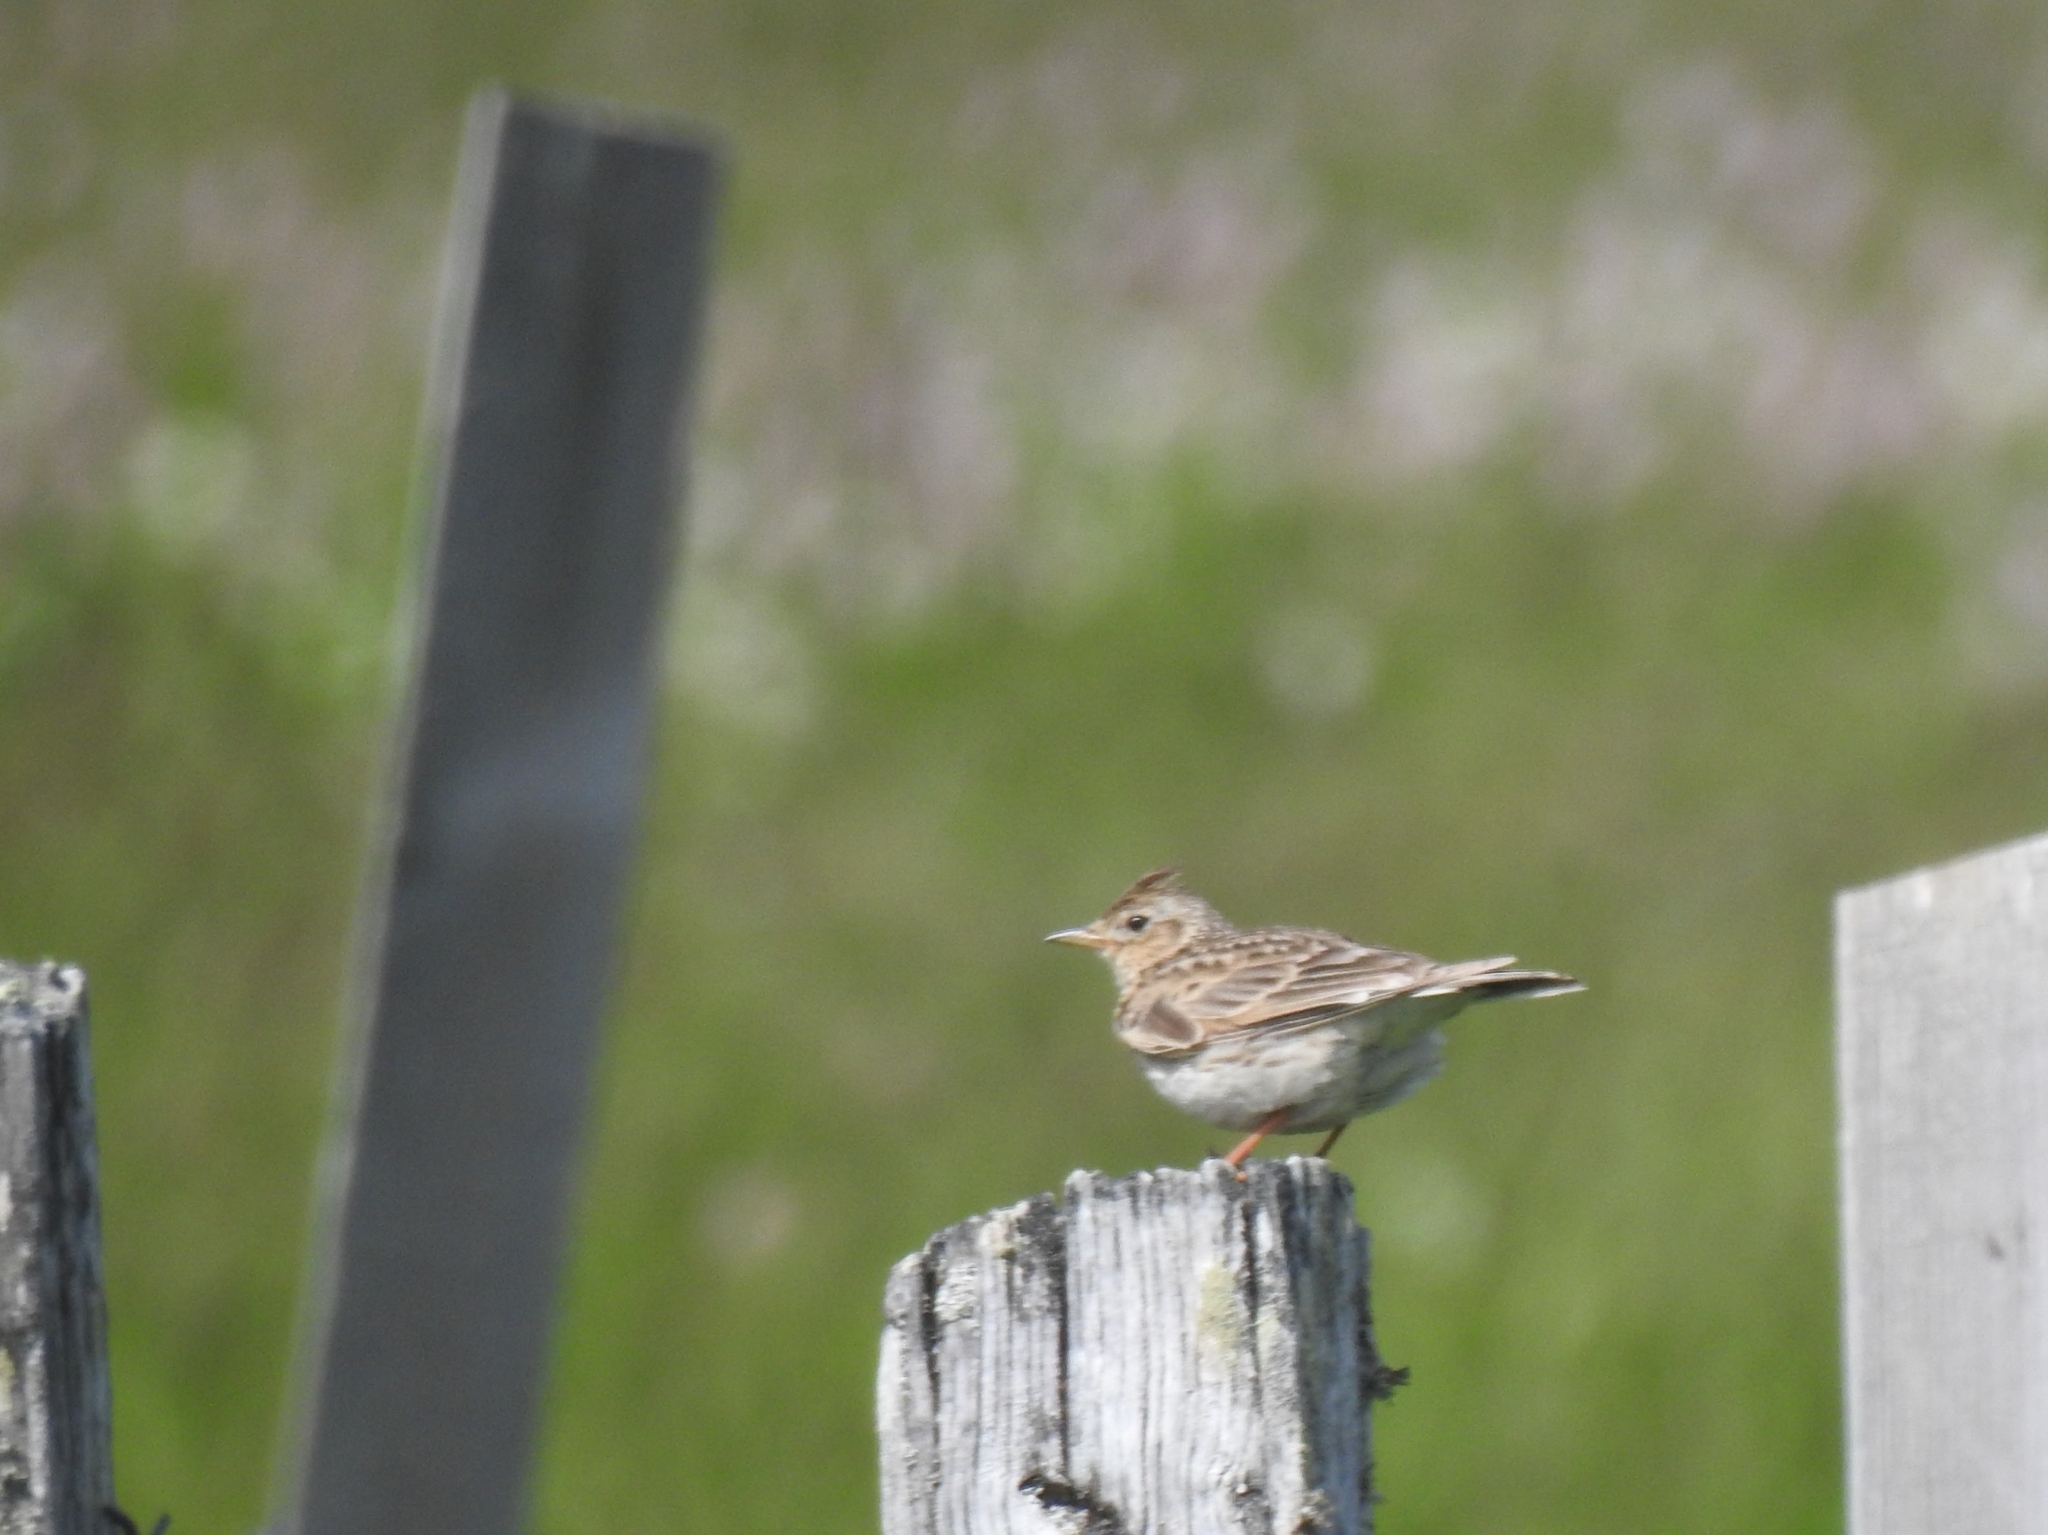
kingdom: Animalia
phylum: Chordata
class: Aves
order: Passeriformes
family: Alaudidae
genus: Alauda
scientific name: Alauda arvensis
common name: Eurasian skylark
